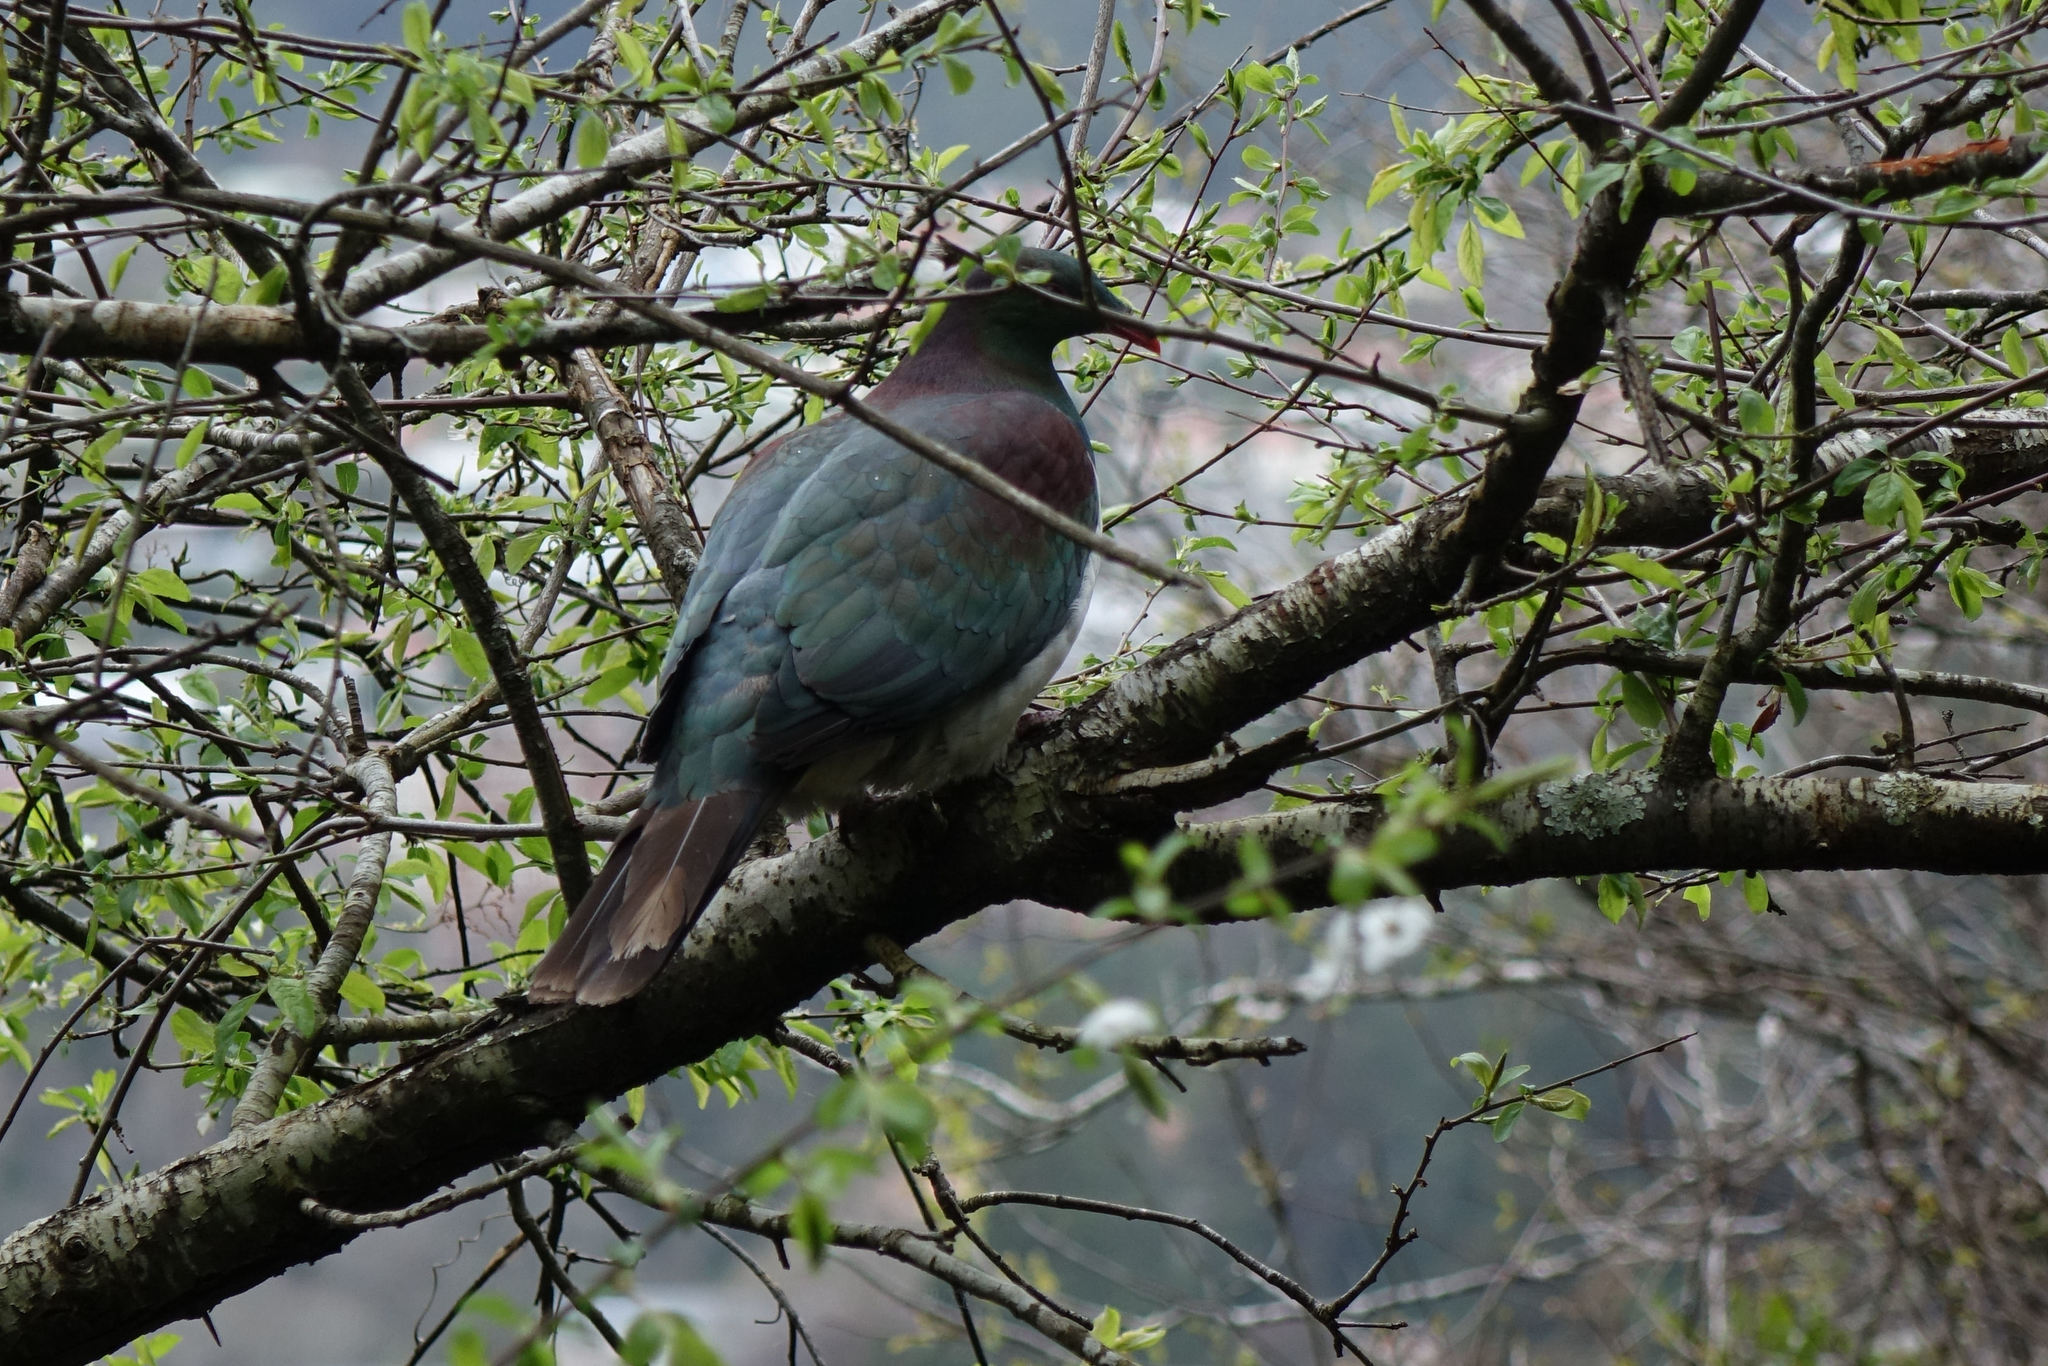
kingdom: Animalia
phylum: Chordata
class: Aves
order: Columbiformes
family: Columbidae
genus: Hemiphaga
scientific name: Hemiphaga novaeseelandiae
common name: New zealand pigeon
